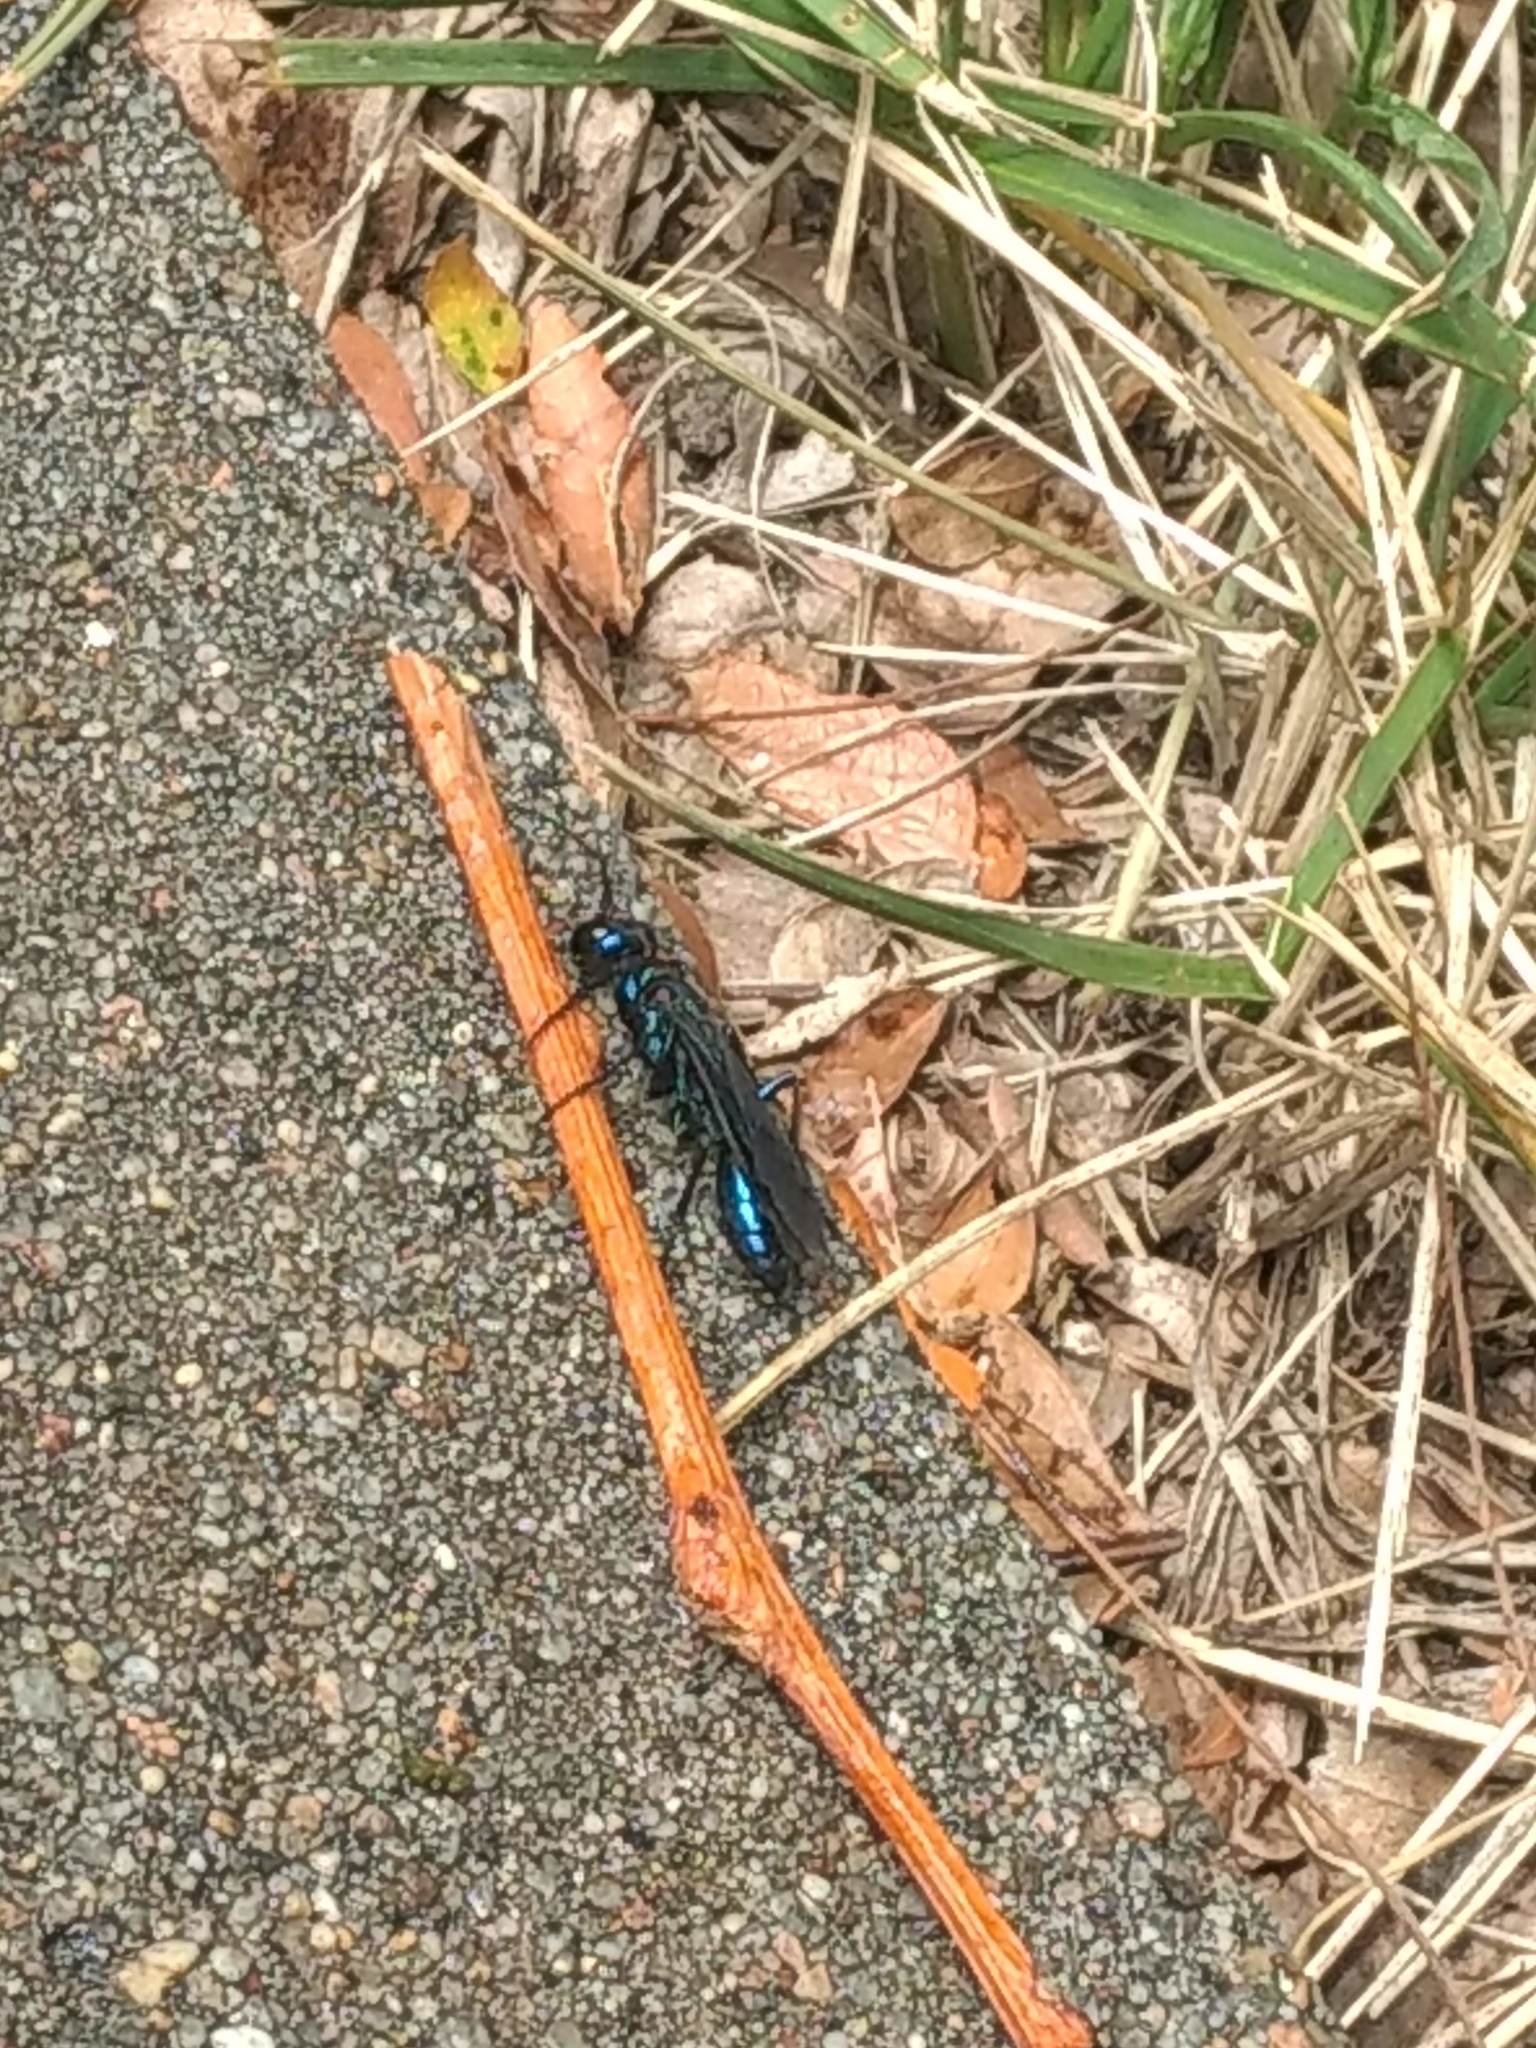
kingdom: Animalia
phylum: Arthropoda
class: Insecta
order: Hymenoptera
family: Sphecidae
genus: Chlorion
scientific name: Chlorion aerarium
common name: Steel-blue cricket hunter
